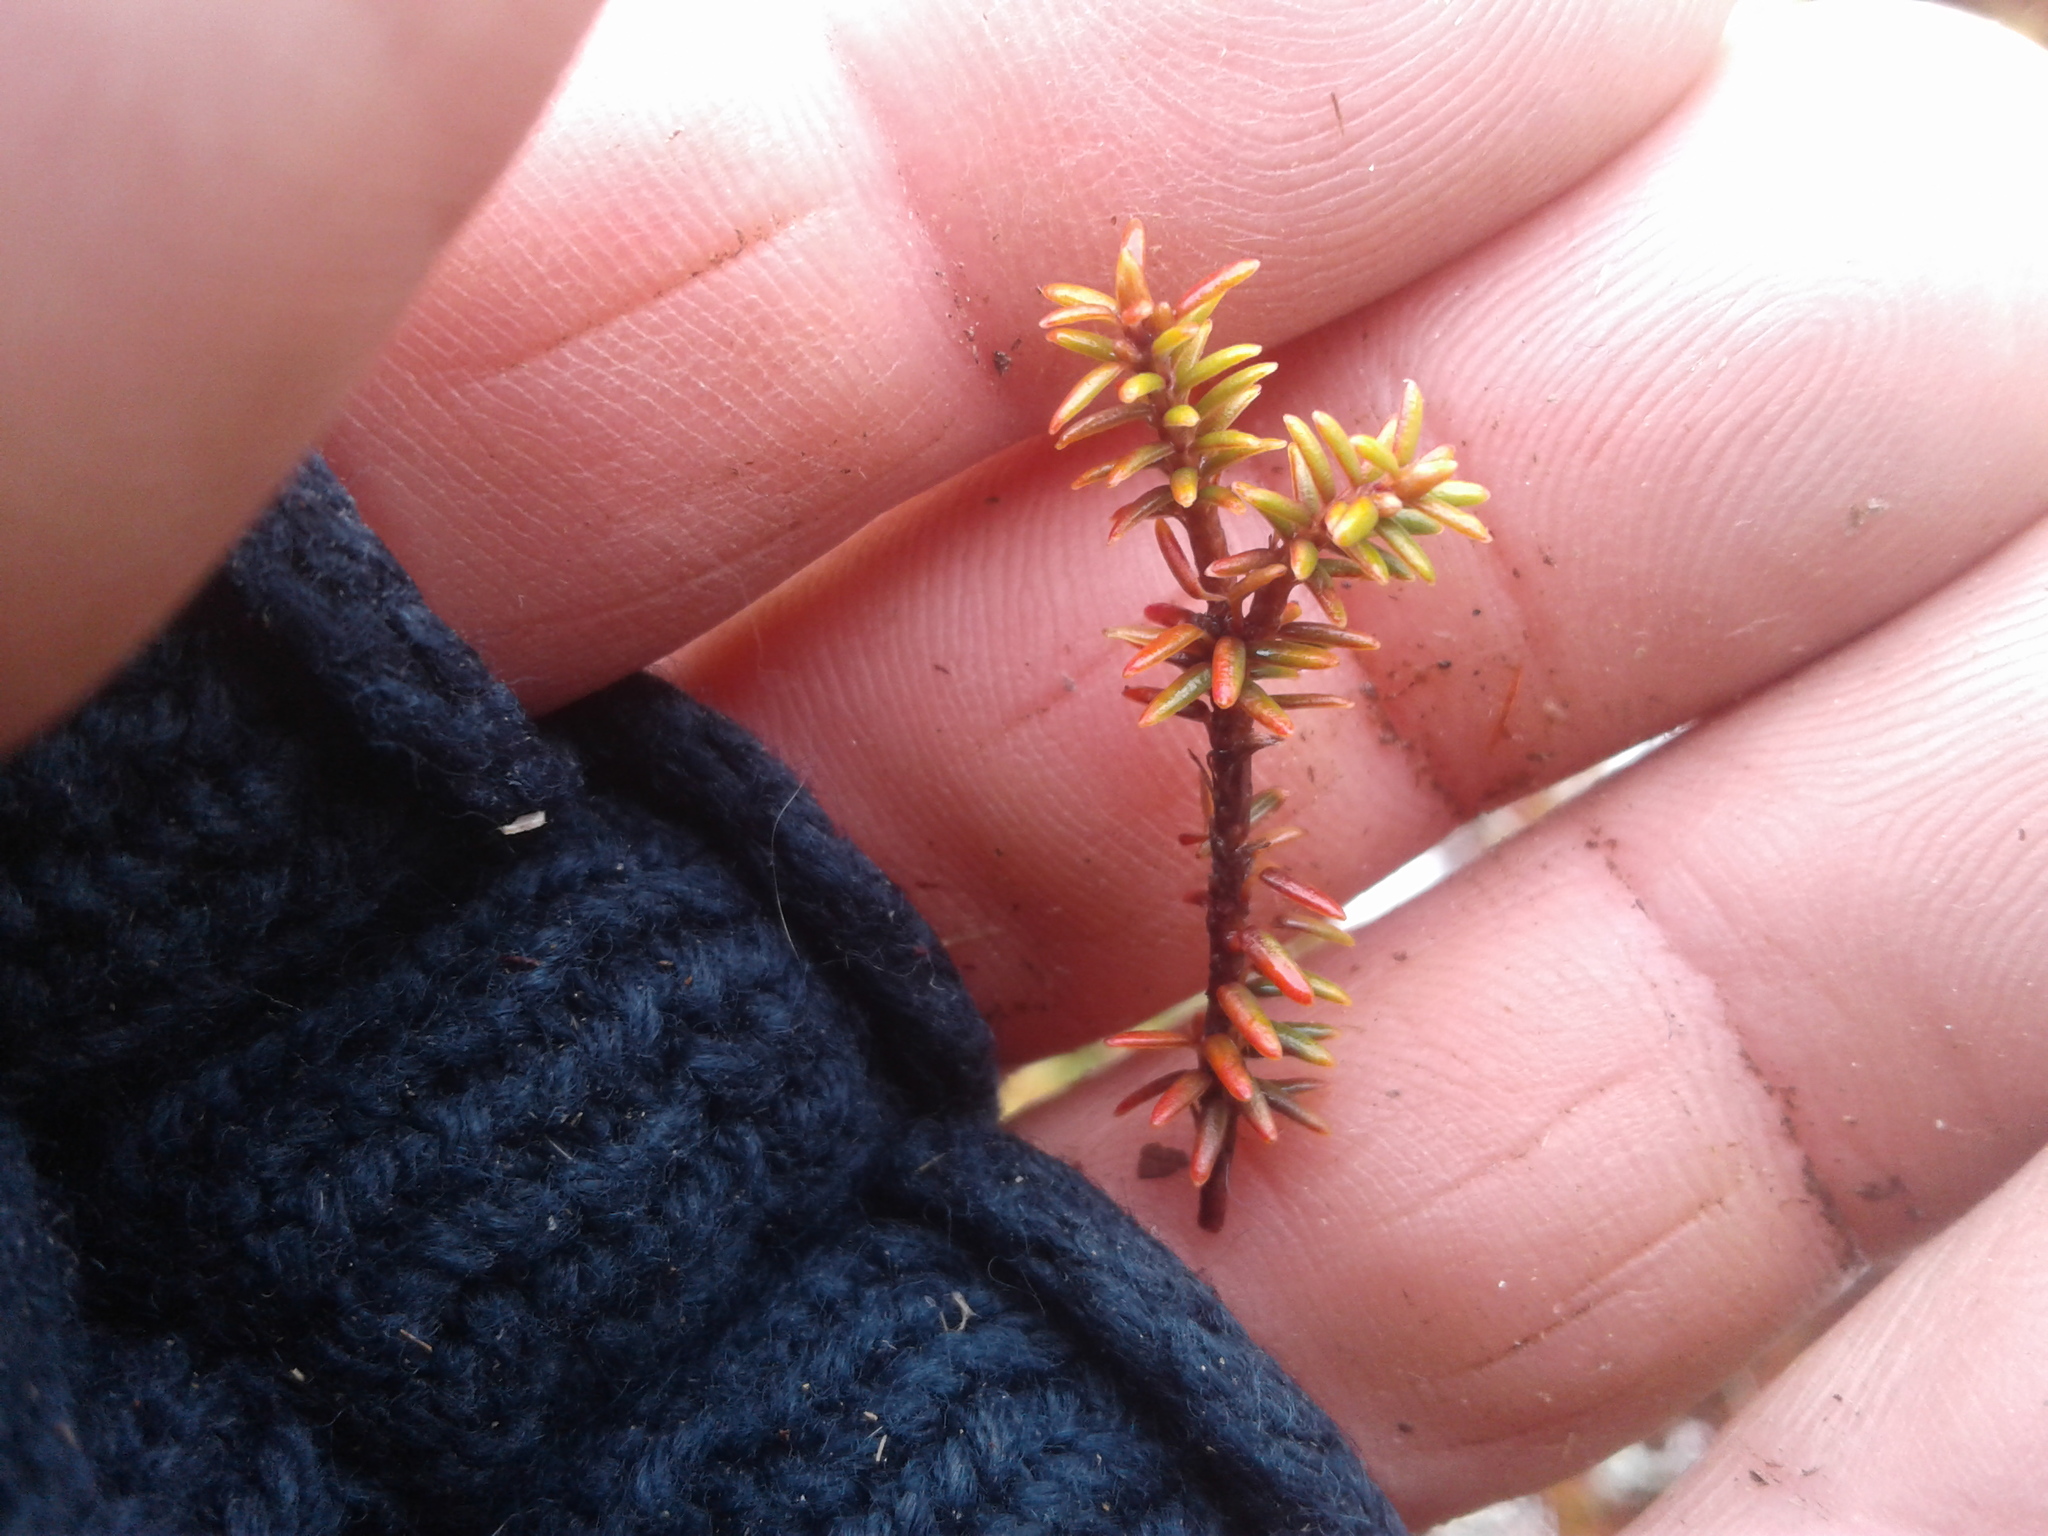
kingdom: Plantae
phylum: Tracheophyta
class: Magnoliopsida
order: Ericales
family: Ericaceae
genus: Androstoma
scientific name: Androstoma empetrifolia
